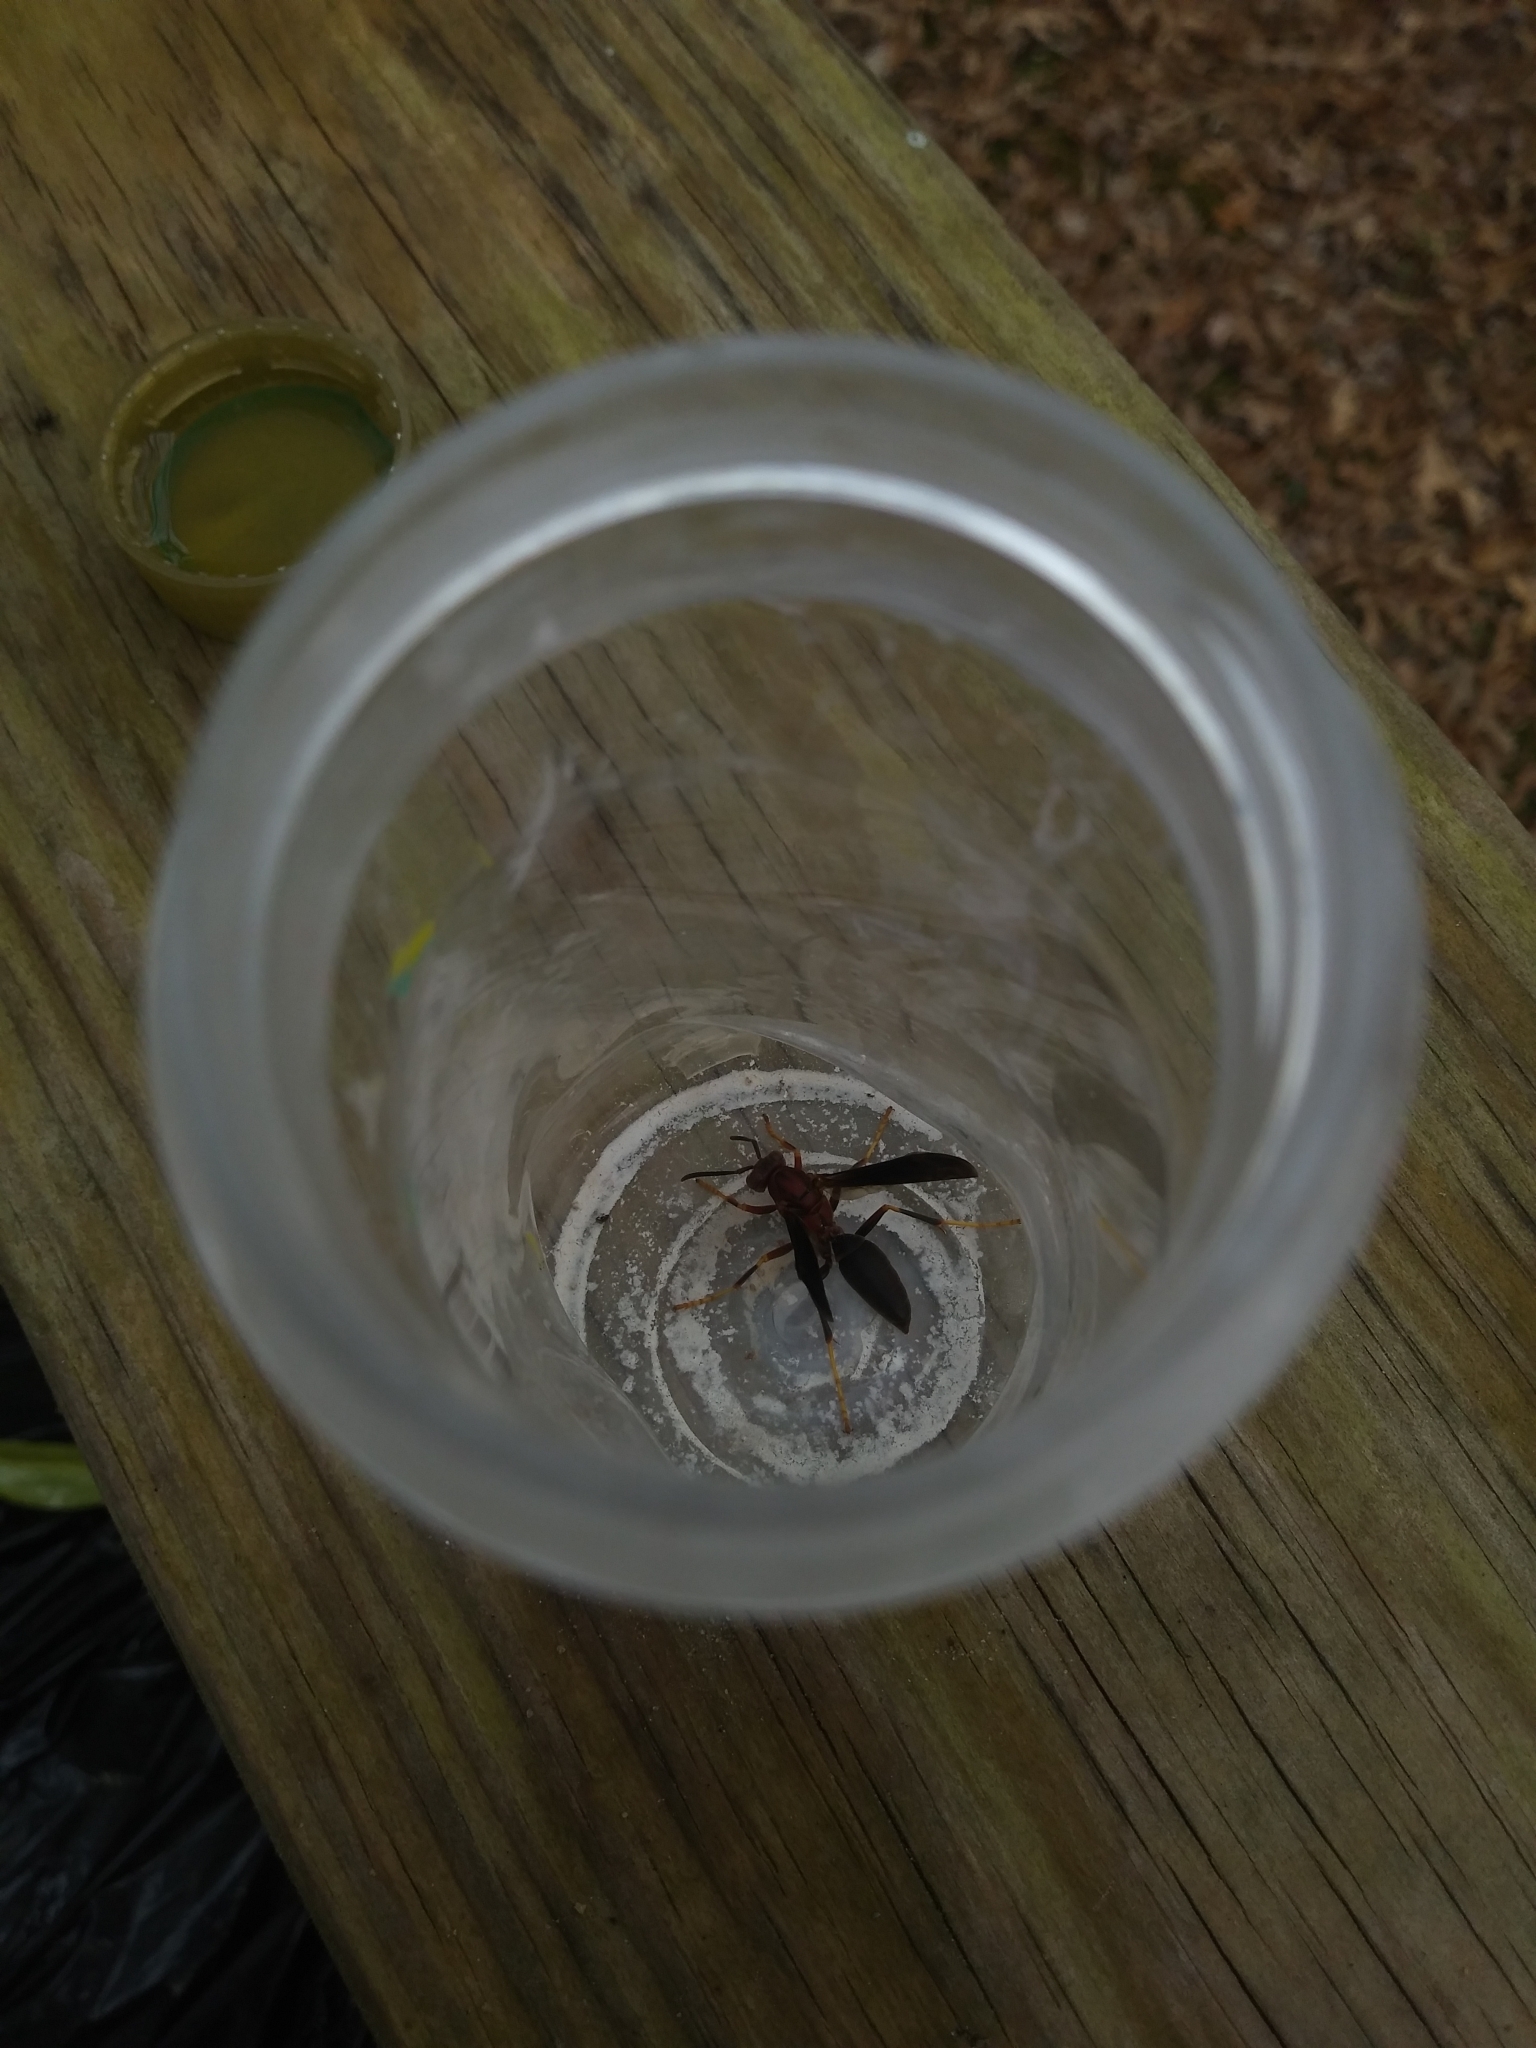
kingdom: Animalia
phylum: Arthropoda
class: Insecta
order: Hymenoptera
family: Eumenidae
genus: Polistes
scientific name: Polistes metricus
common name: Metric paper wasp
